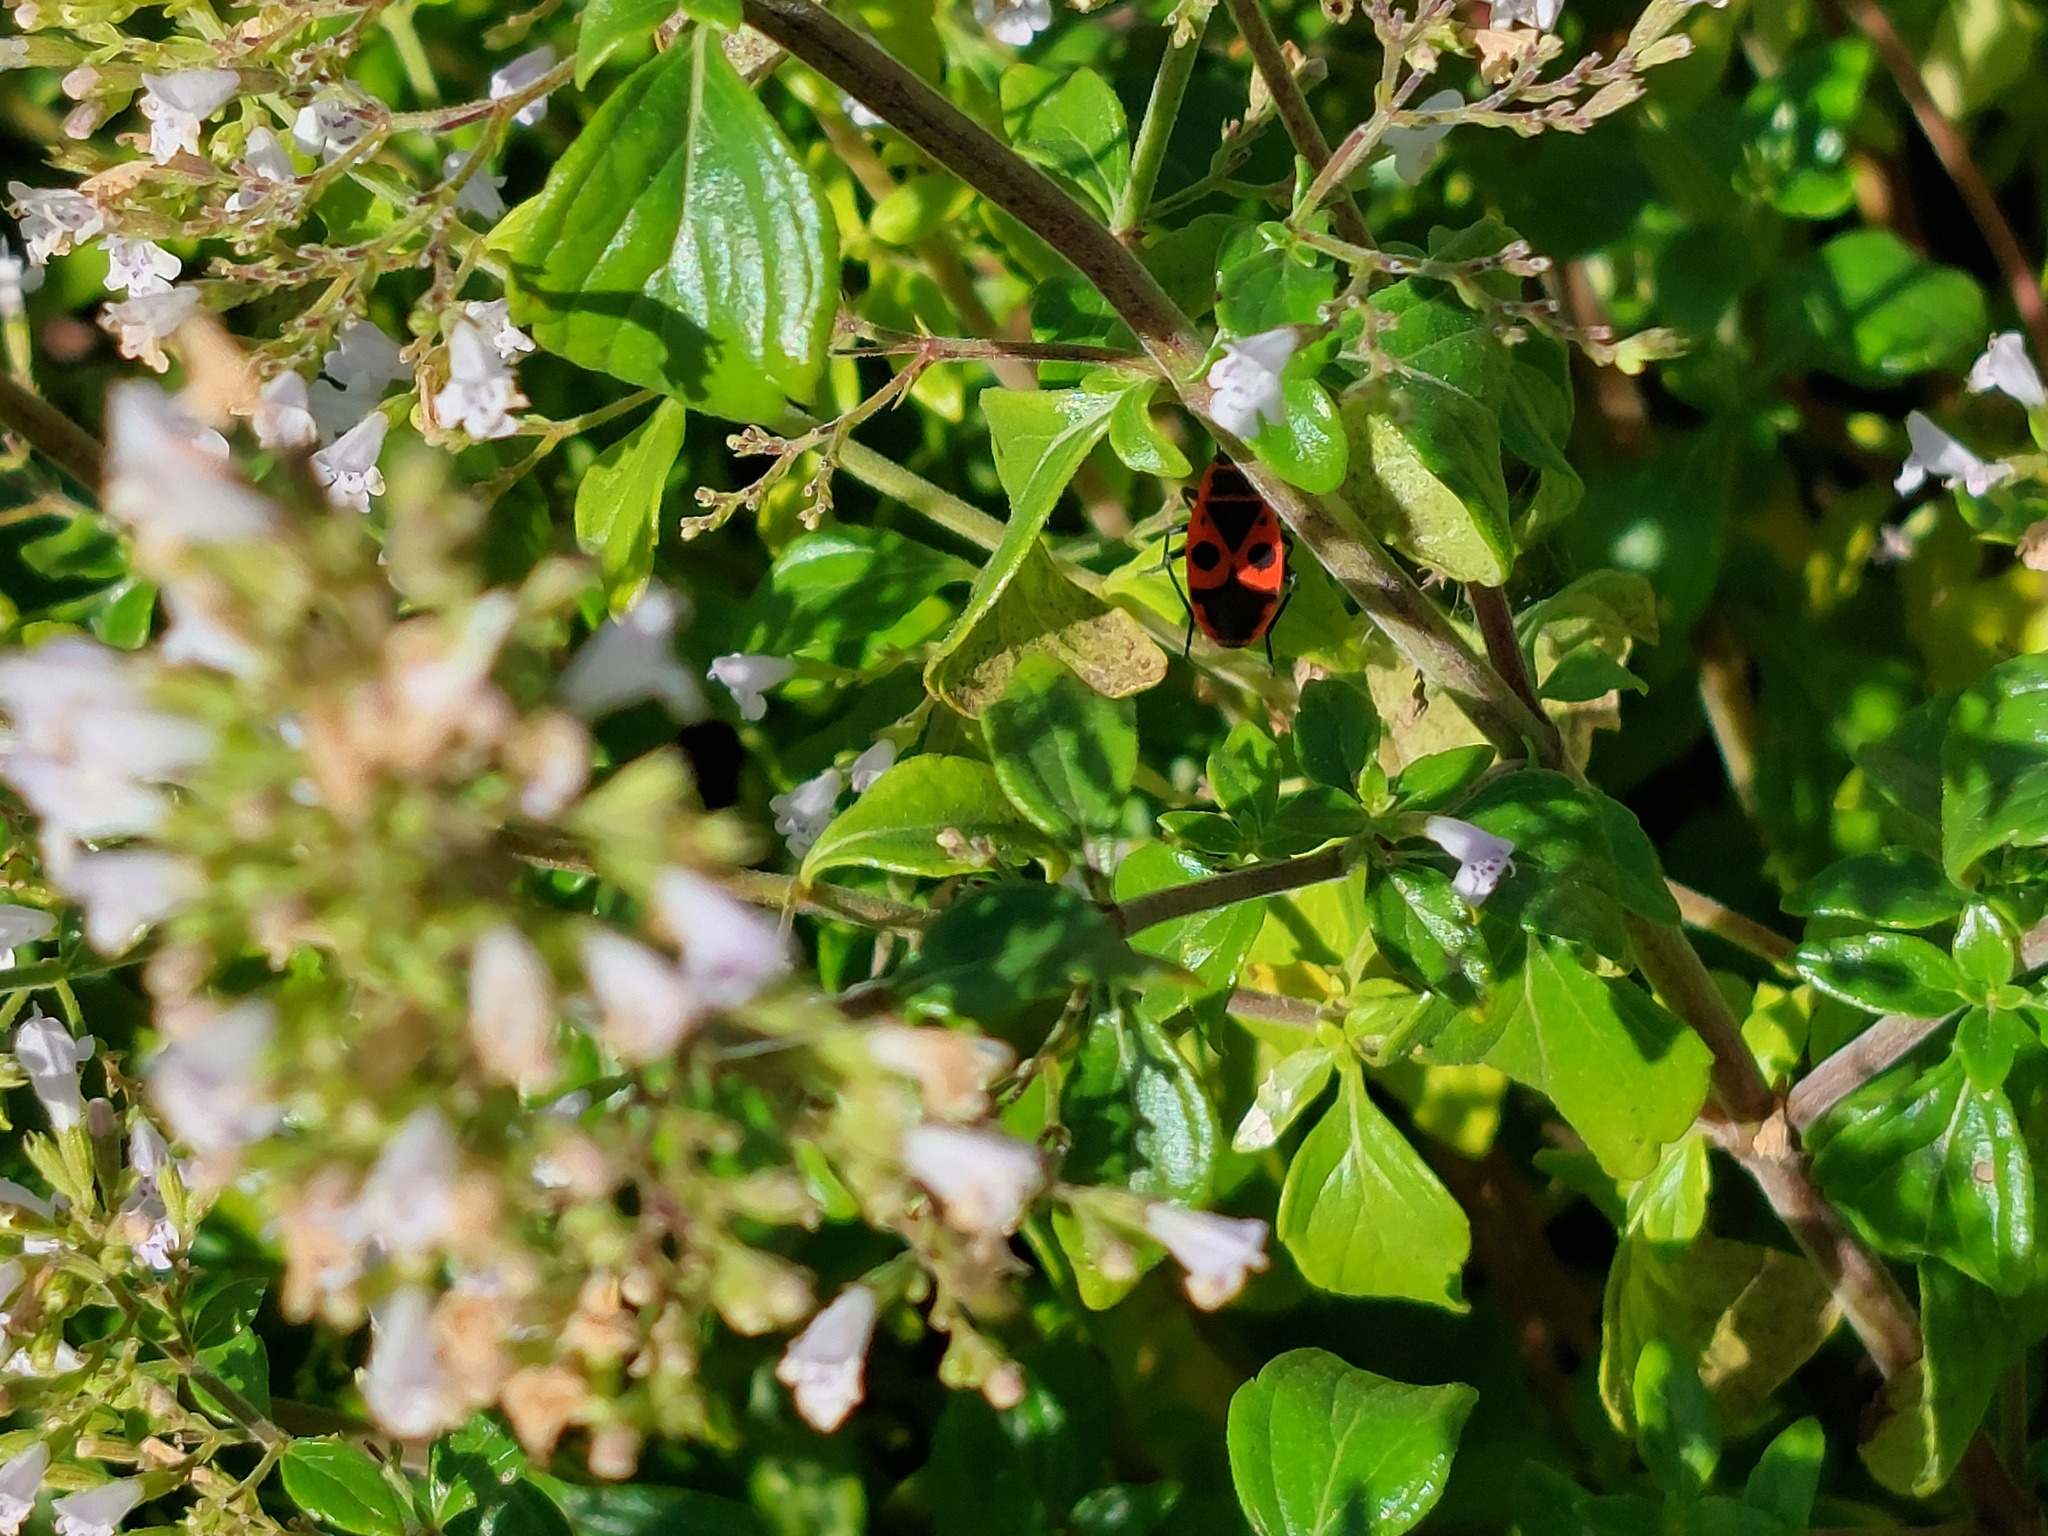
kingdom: Animalia
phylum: Arthropoda
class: Insecta
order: Hemiptera
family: Pyrrhocoridae
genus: Pyrrhocoris
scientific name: Pyrrhocoris apterus
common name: Firebug
